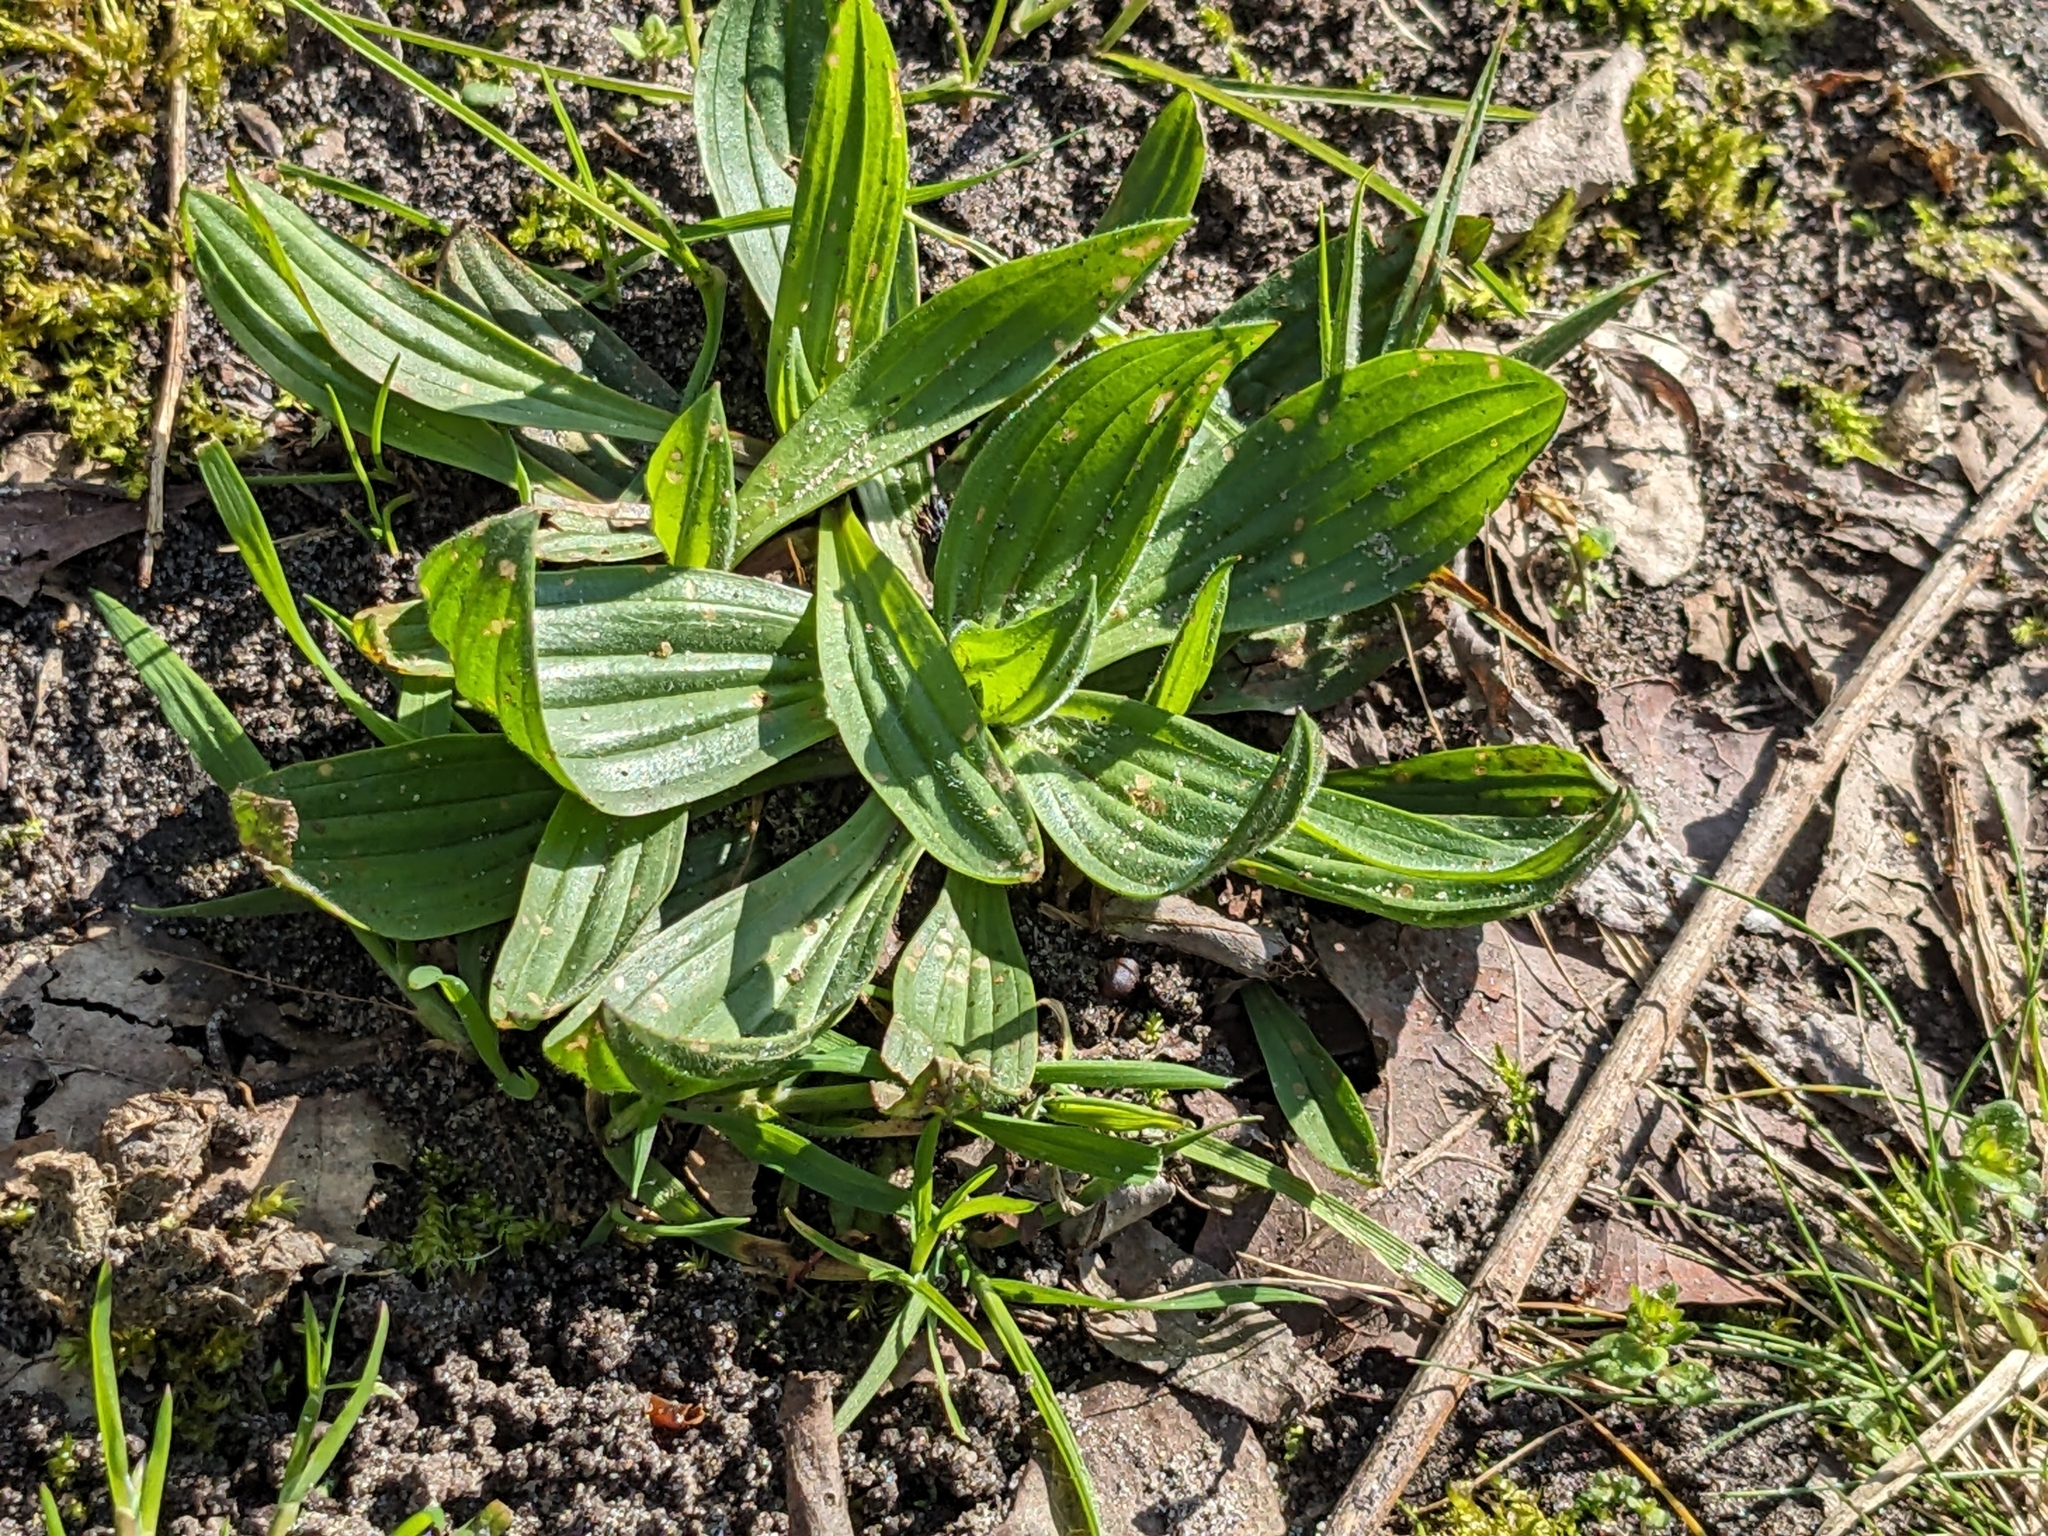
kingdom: Plantae
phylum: Tracheophyta
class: Magnoliopsida
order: Lamiales
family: Plantaginaceae
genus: Plantago
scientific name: Plantago lanceolata
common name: Ribwort plantain
